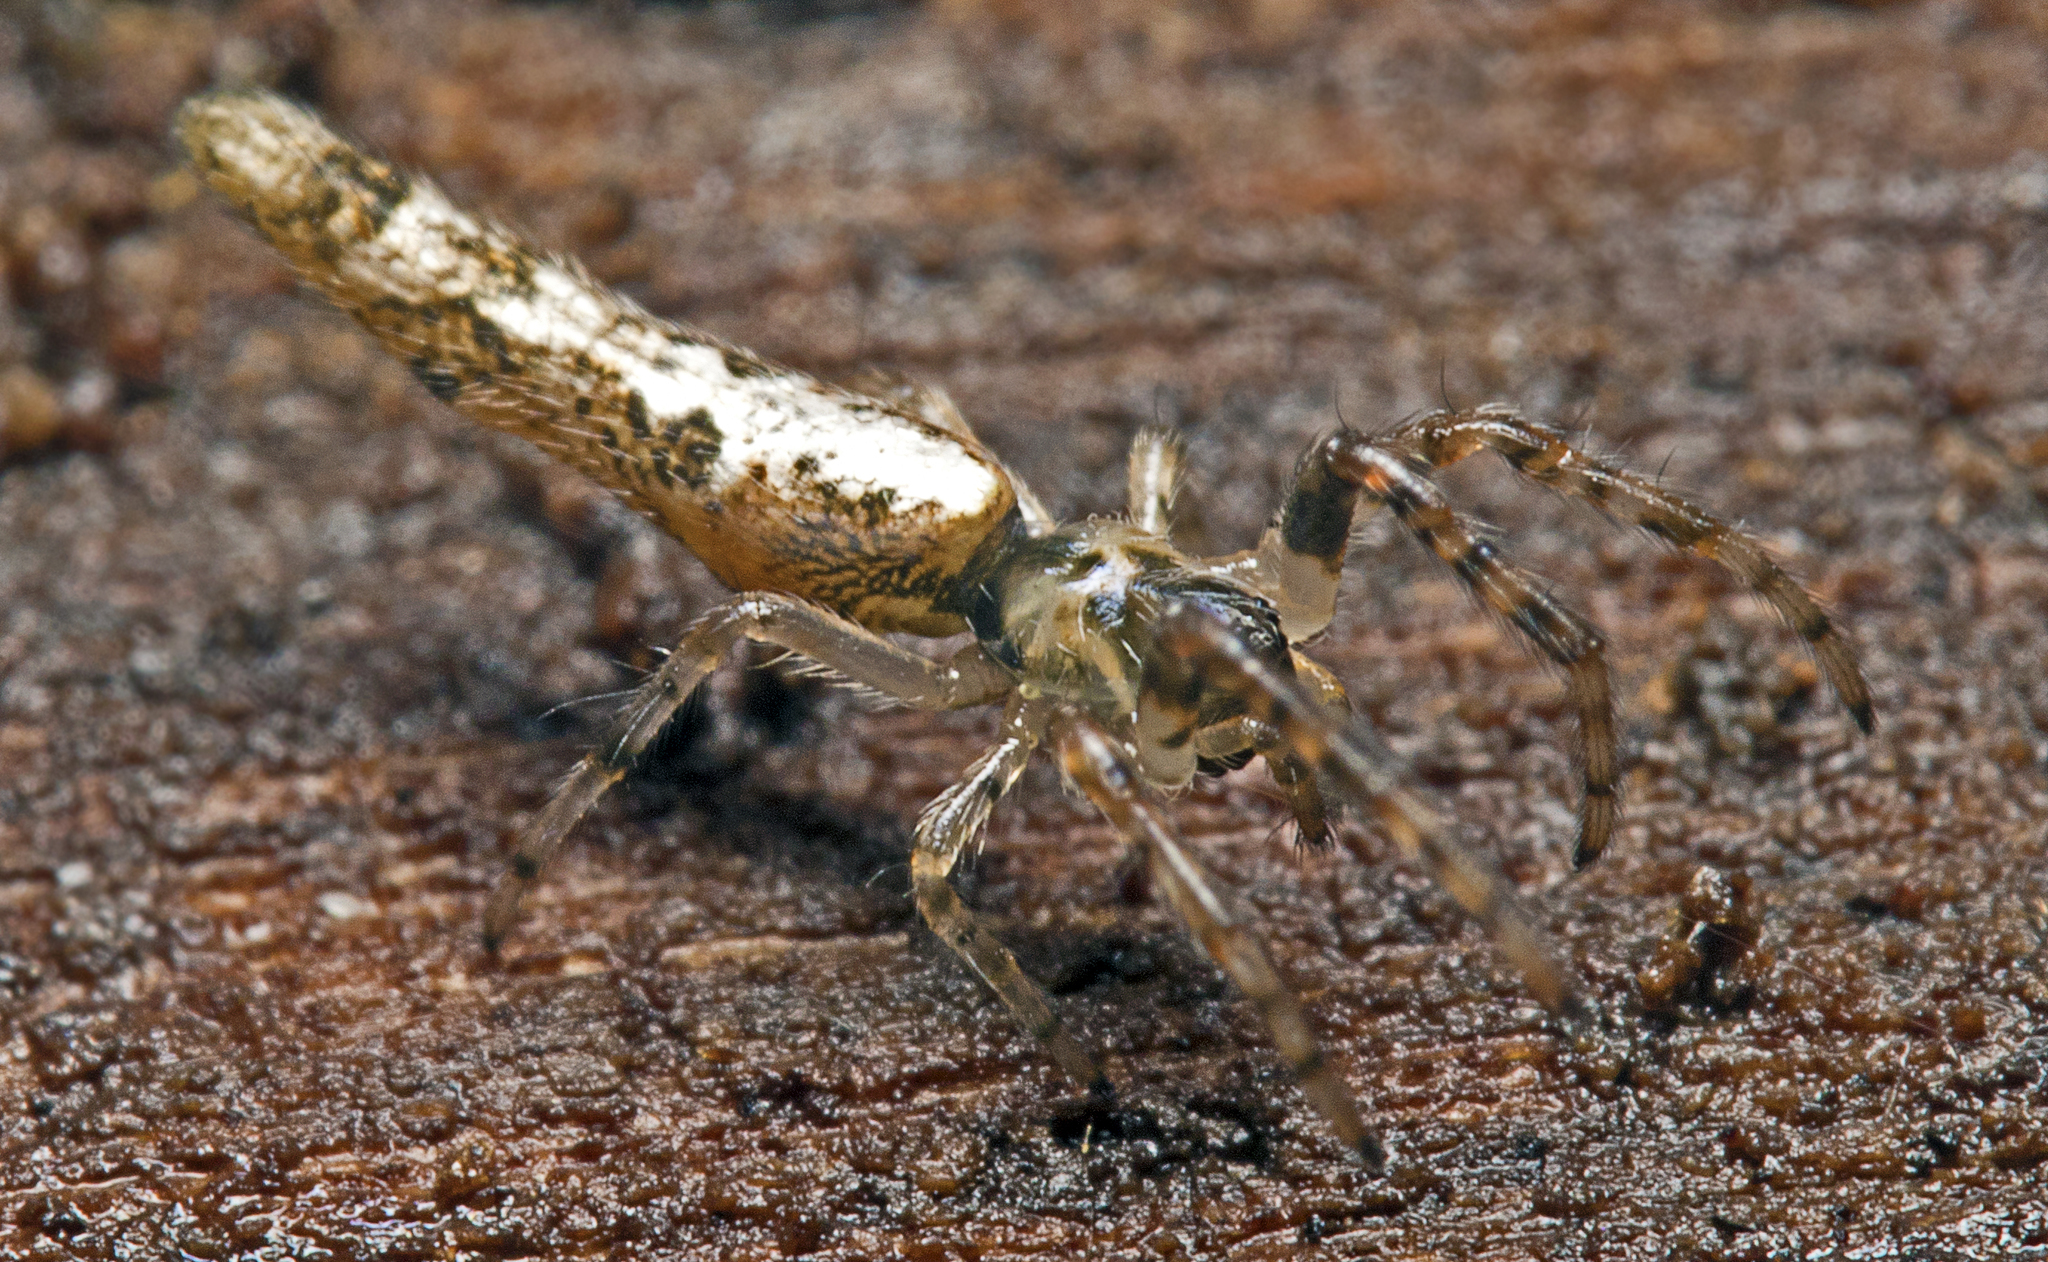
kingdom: Animalia
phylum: Arthropoda
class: Arachnida
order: Araneae
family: Araneidae
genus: Cyclosa
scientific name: Cyclosa bacilliformis
